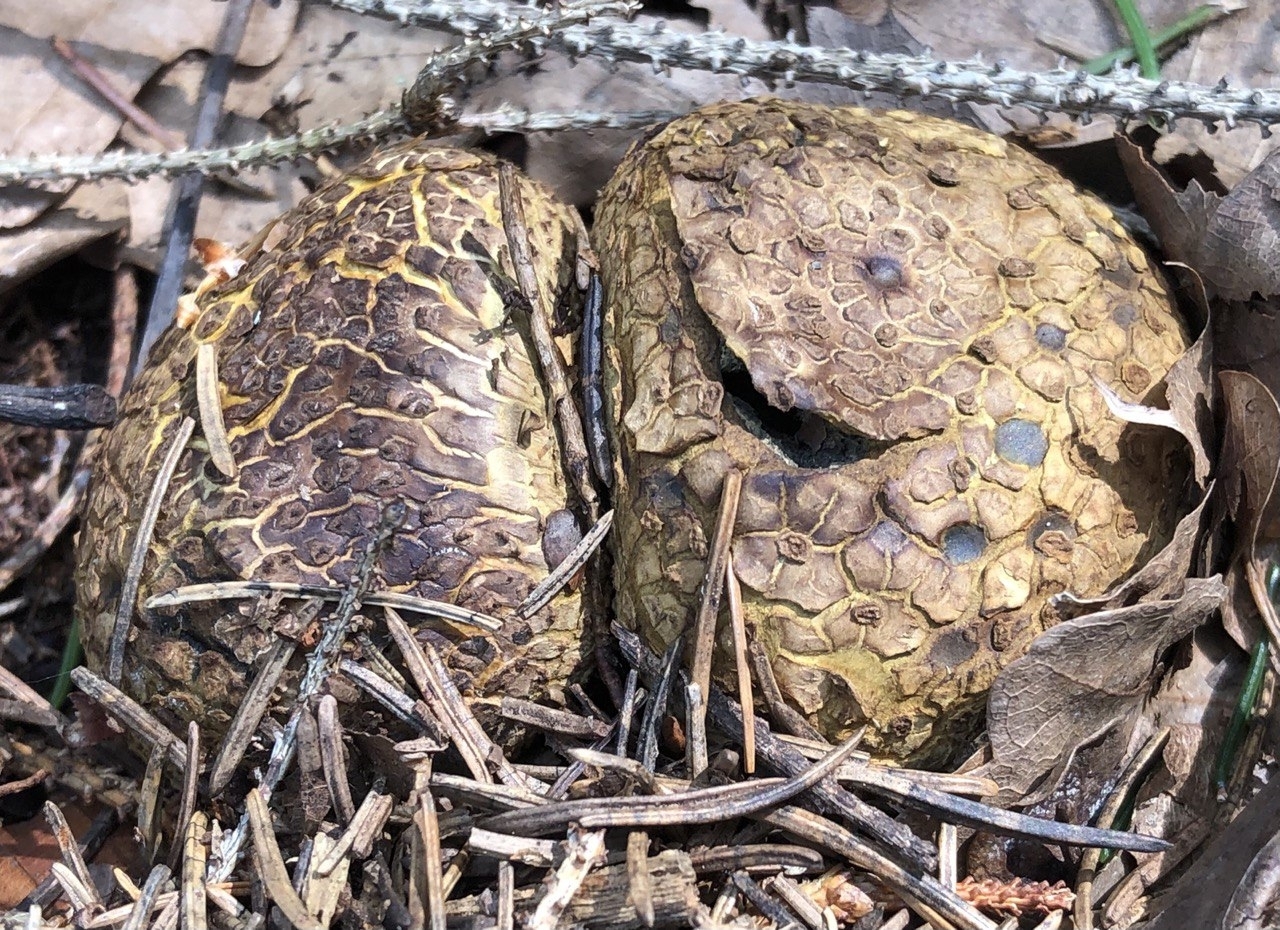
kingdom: Fungi
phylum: Basidiomycota
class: Agaricomycetes
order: Boletales
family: Sclerodermataceae
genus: Scleroderma
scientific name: Scleroderma citrinum
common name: Common earthball
